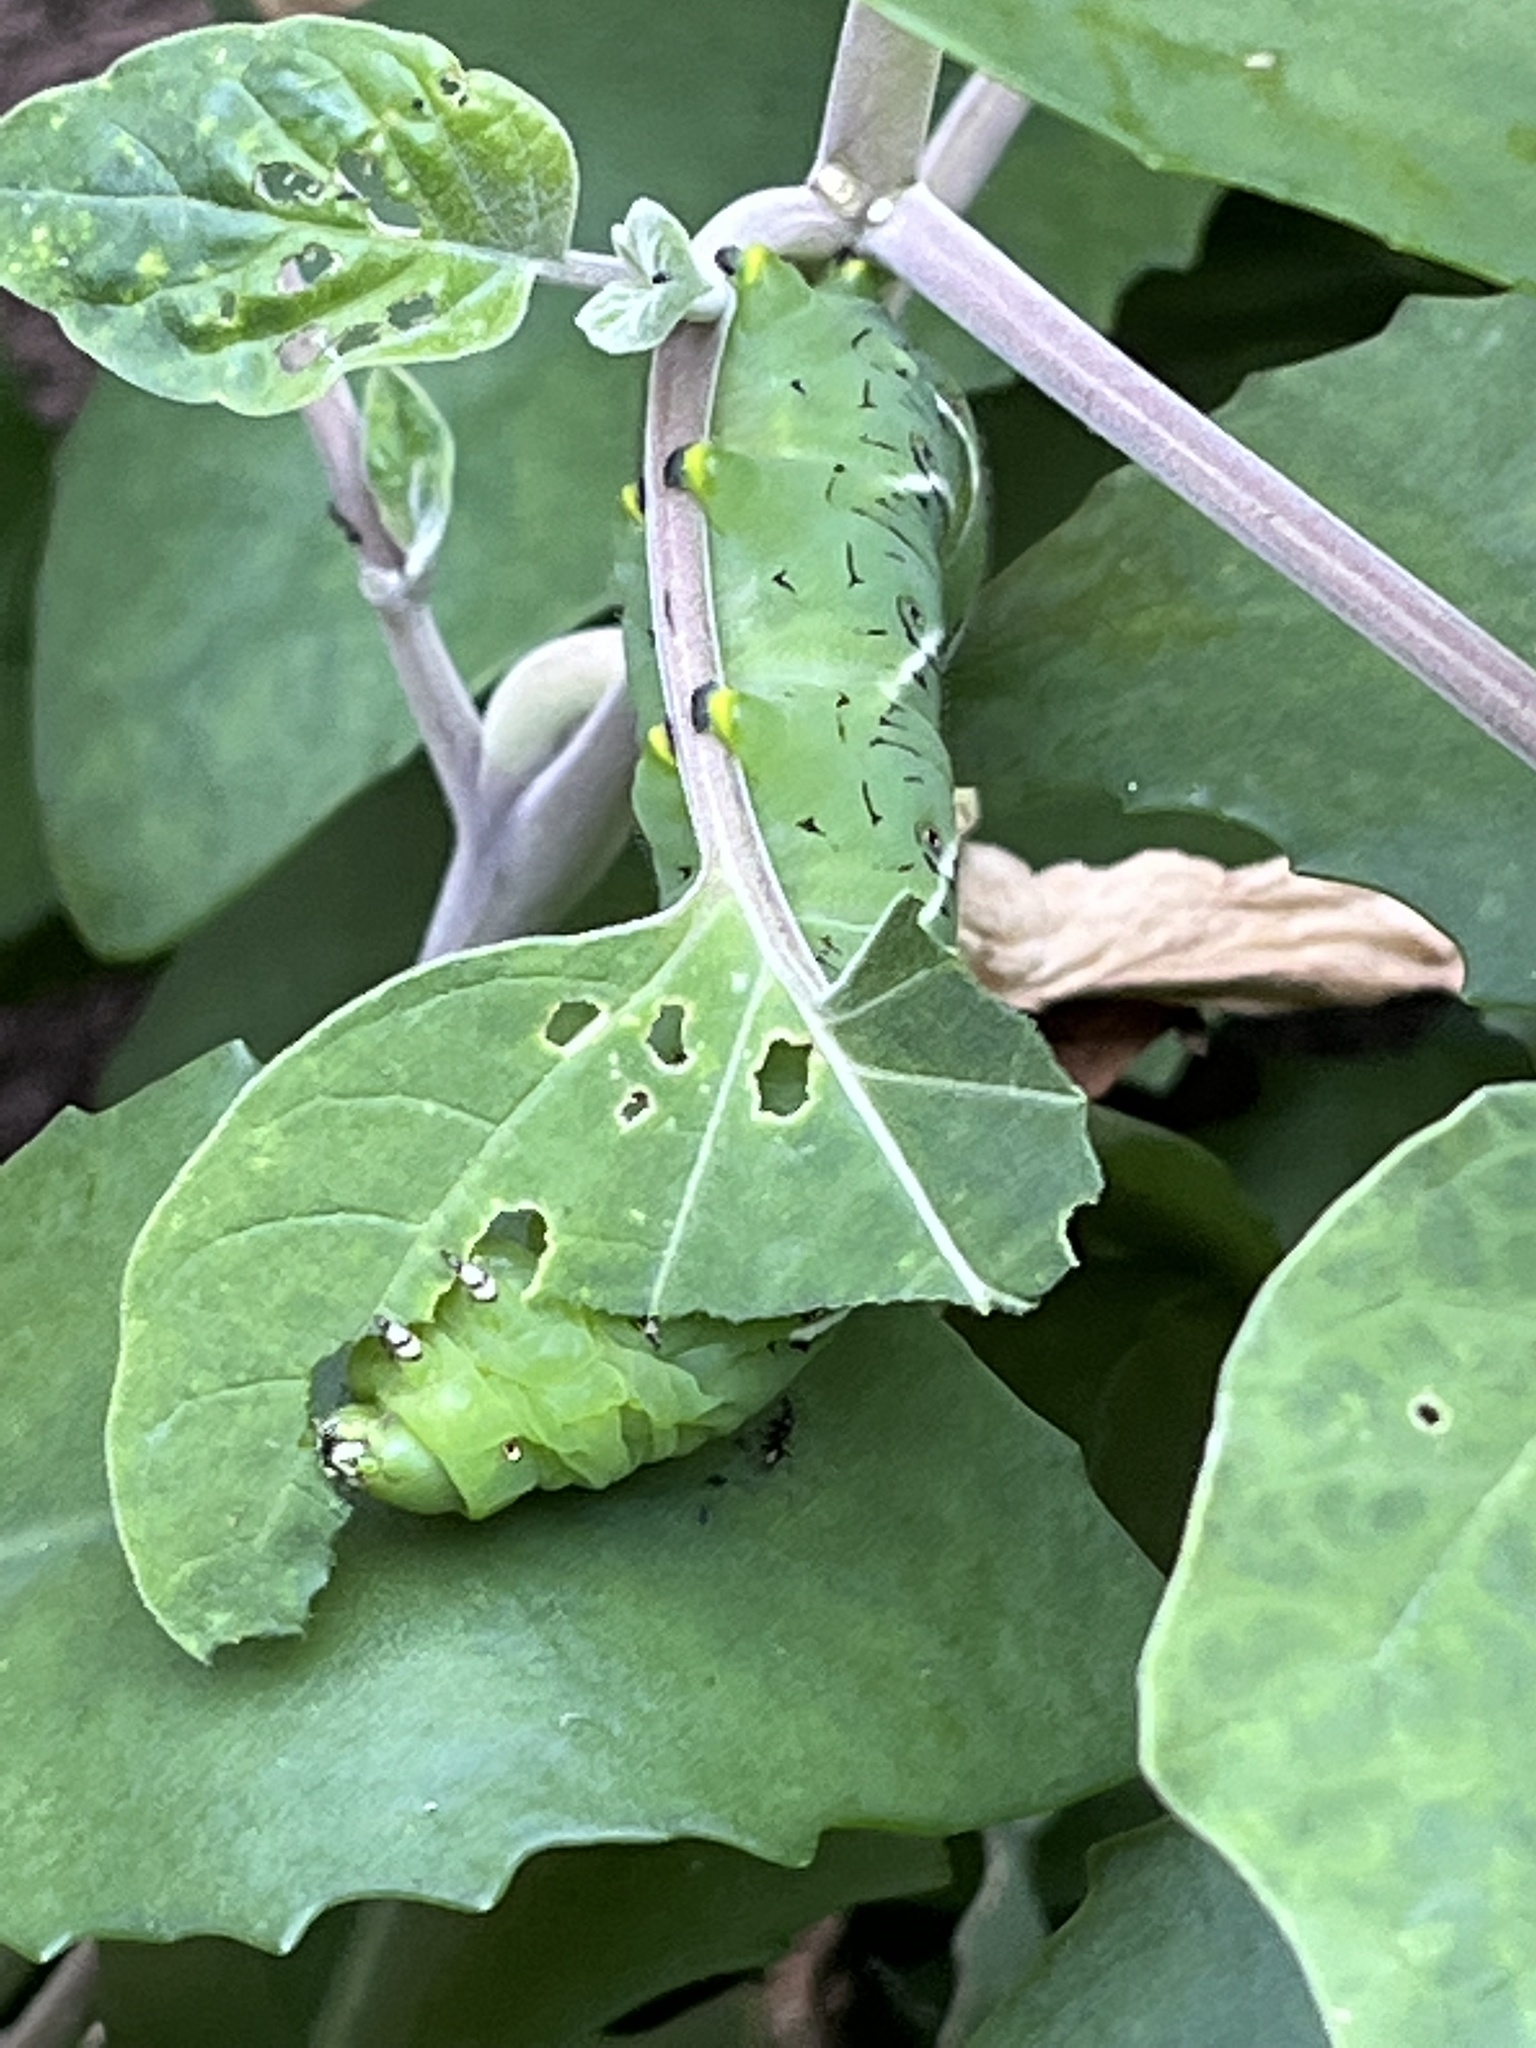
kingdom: Animalia
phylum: Arthropoda
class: Insecta
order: Lepidoptera
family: Sphingidae
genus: Manduca
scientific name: Manduca sexta
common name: Carolina sphinx
